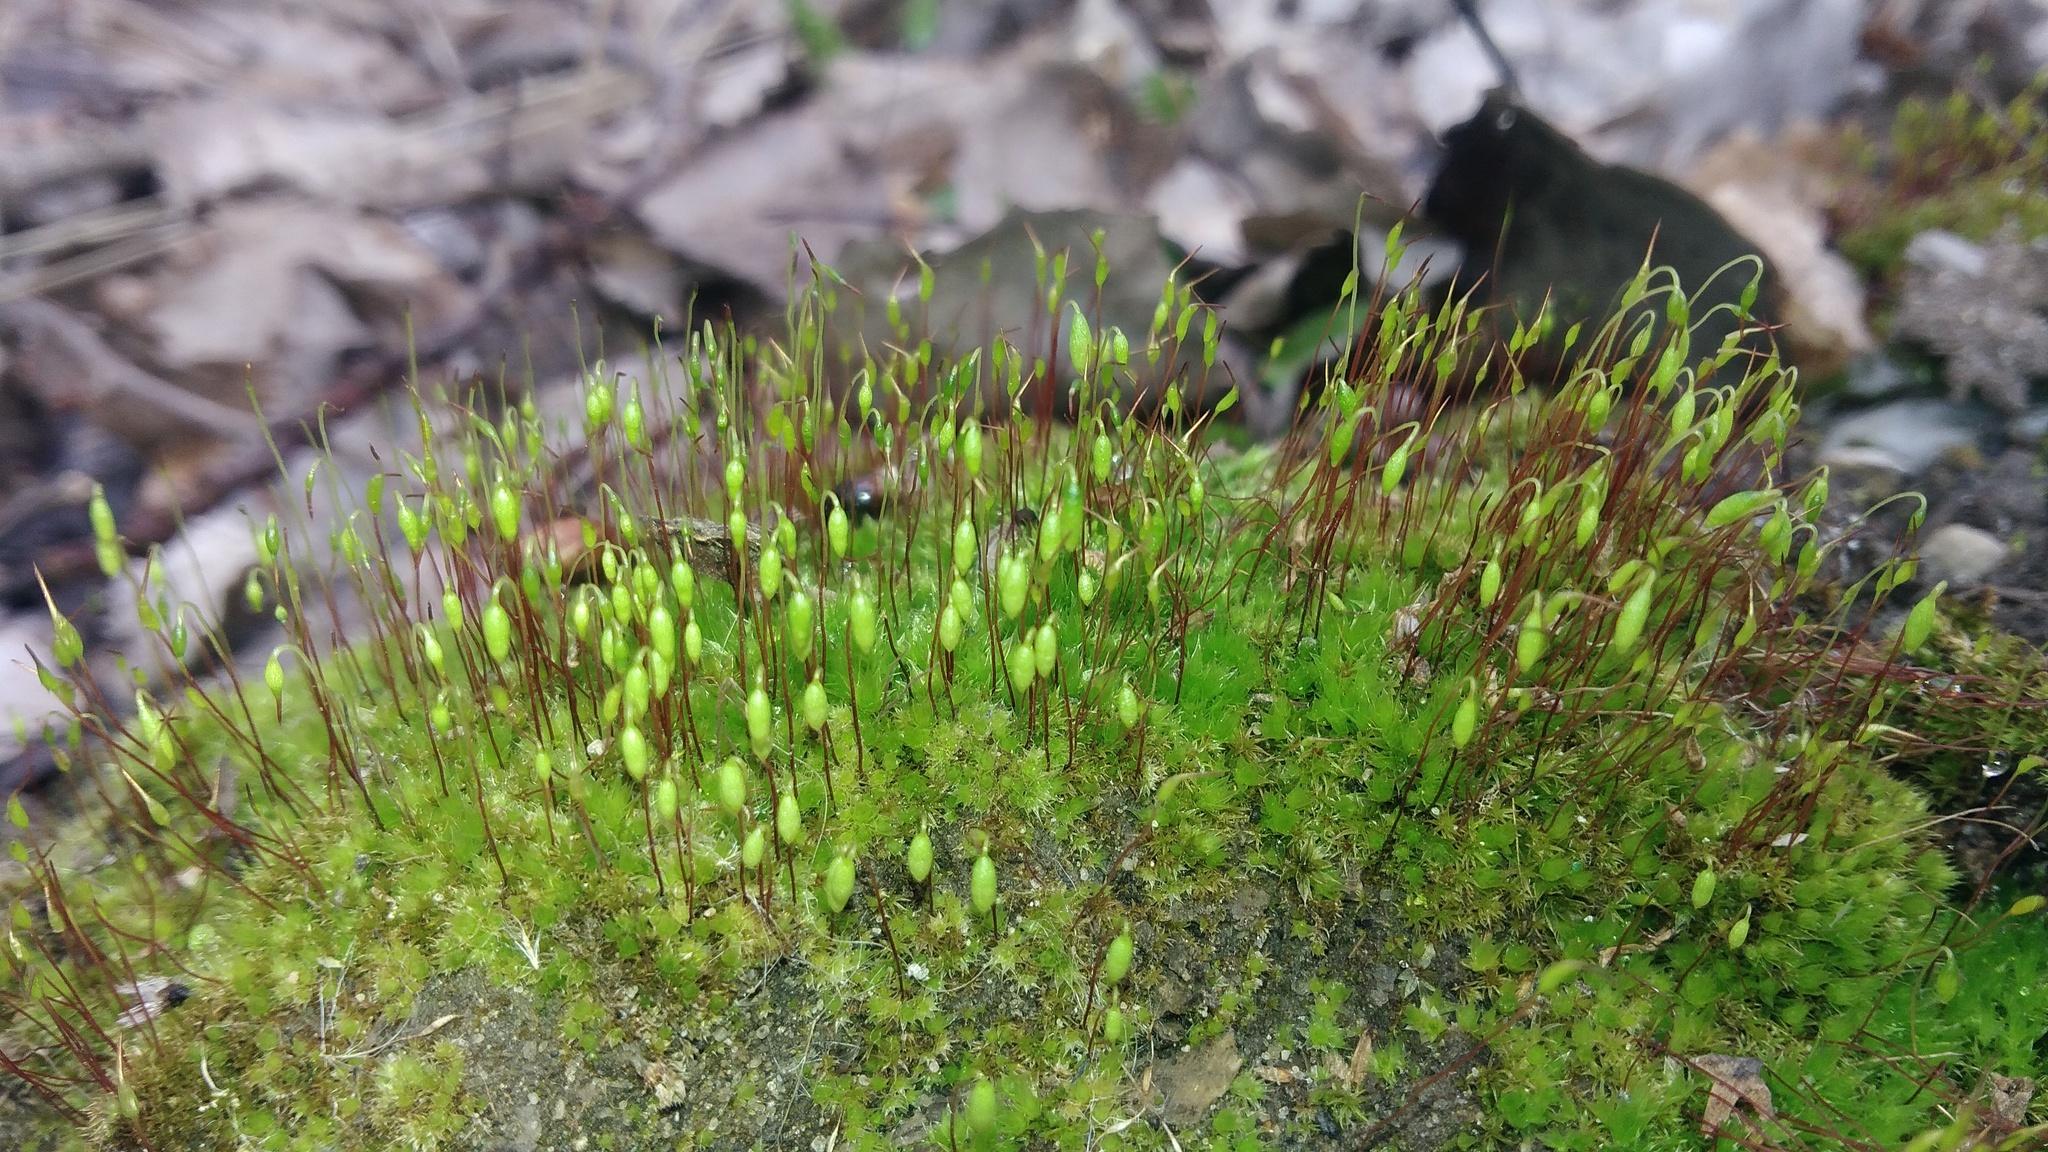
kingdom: Plantae
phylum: Bryophyta
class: Bryopsida
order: Bryales
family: Bryaceae
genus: Rosulabryum
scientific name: Rosulabryum capillare
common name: Capillary thread-moss
